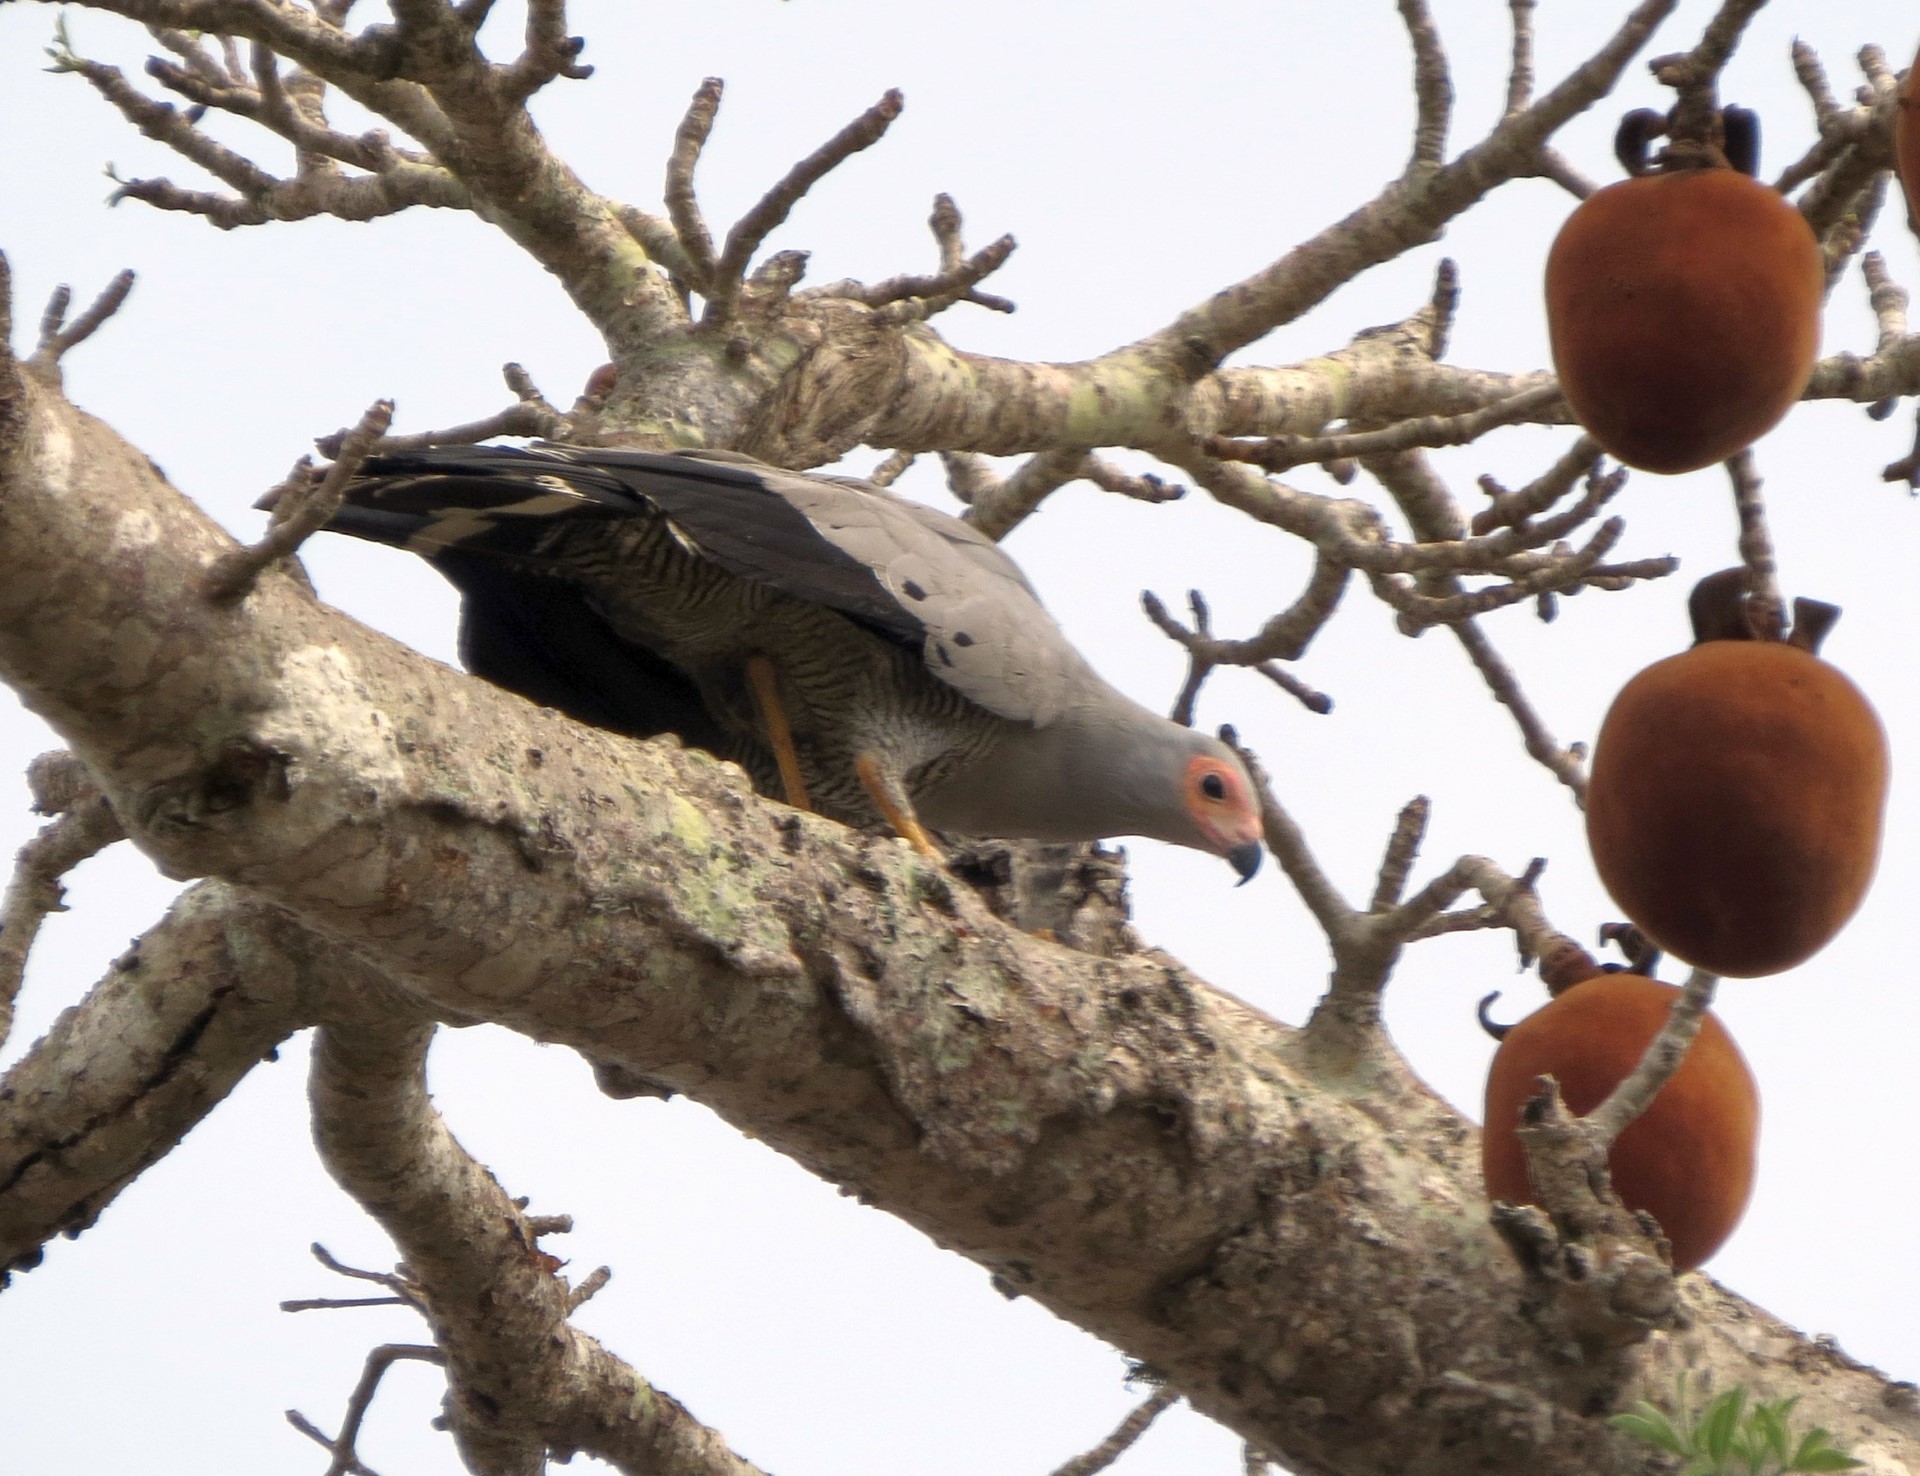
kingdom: Animalia
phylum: Chordata
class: Aves
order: Accipitriformes
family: Accipitridae
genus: Polyboroides
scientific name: Polyboroides radiatus
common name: Madagascar harrier-hawk
